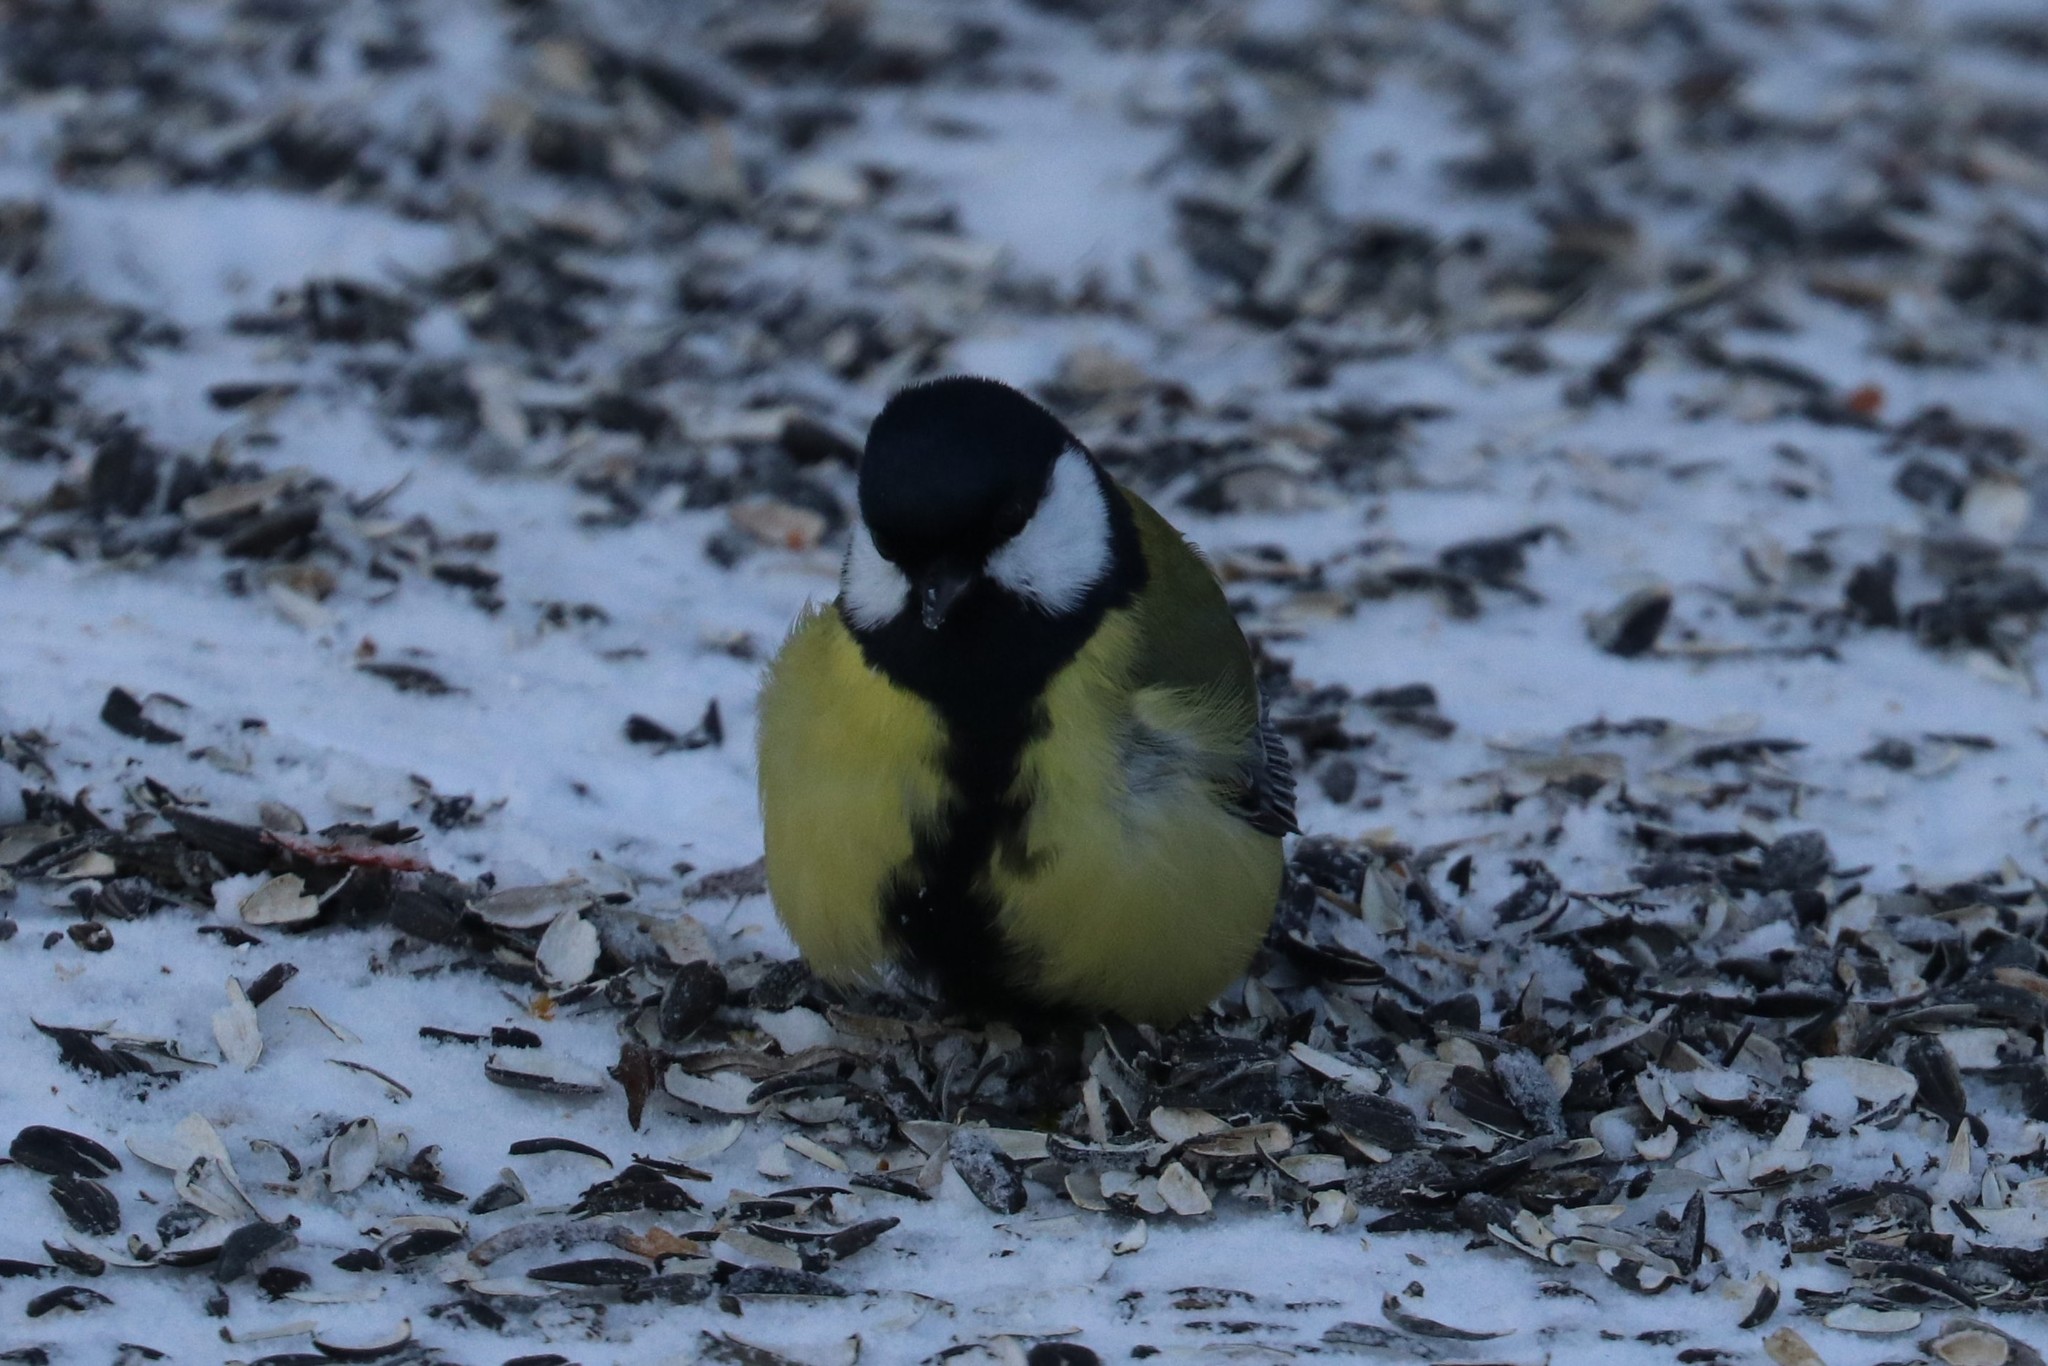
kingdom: Animalia
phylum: Chordata
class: Aves
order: Passeriformes
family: Paridae
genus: Parus
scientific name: Parus major
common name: Great tit
